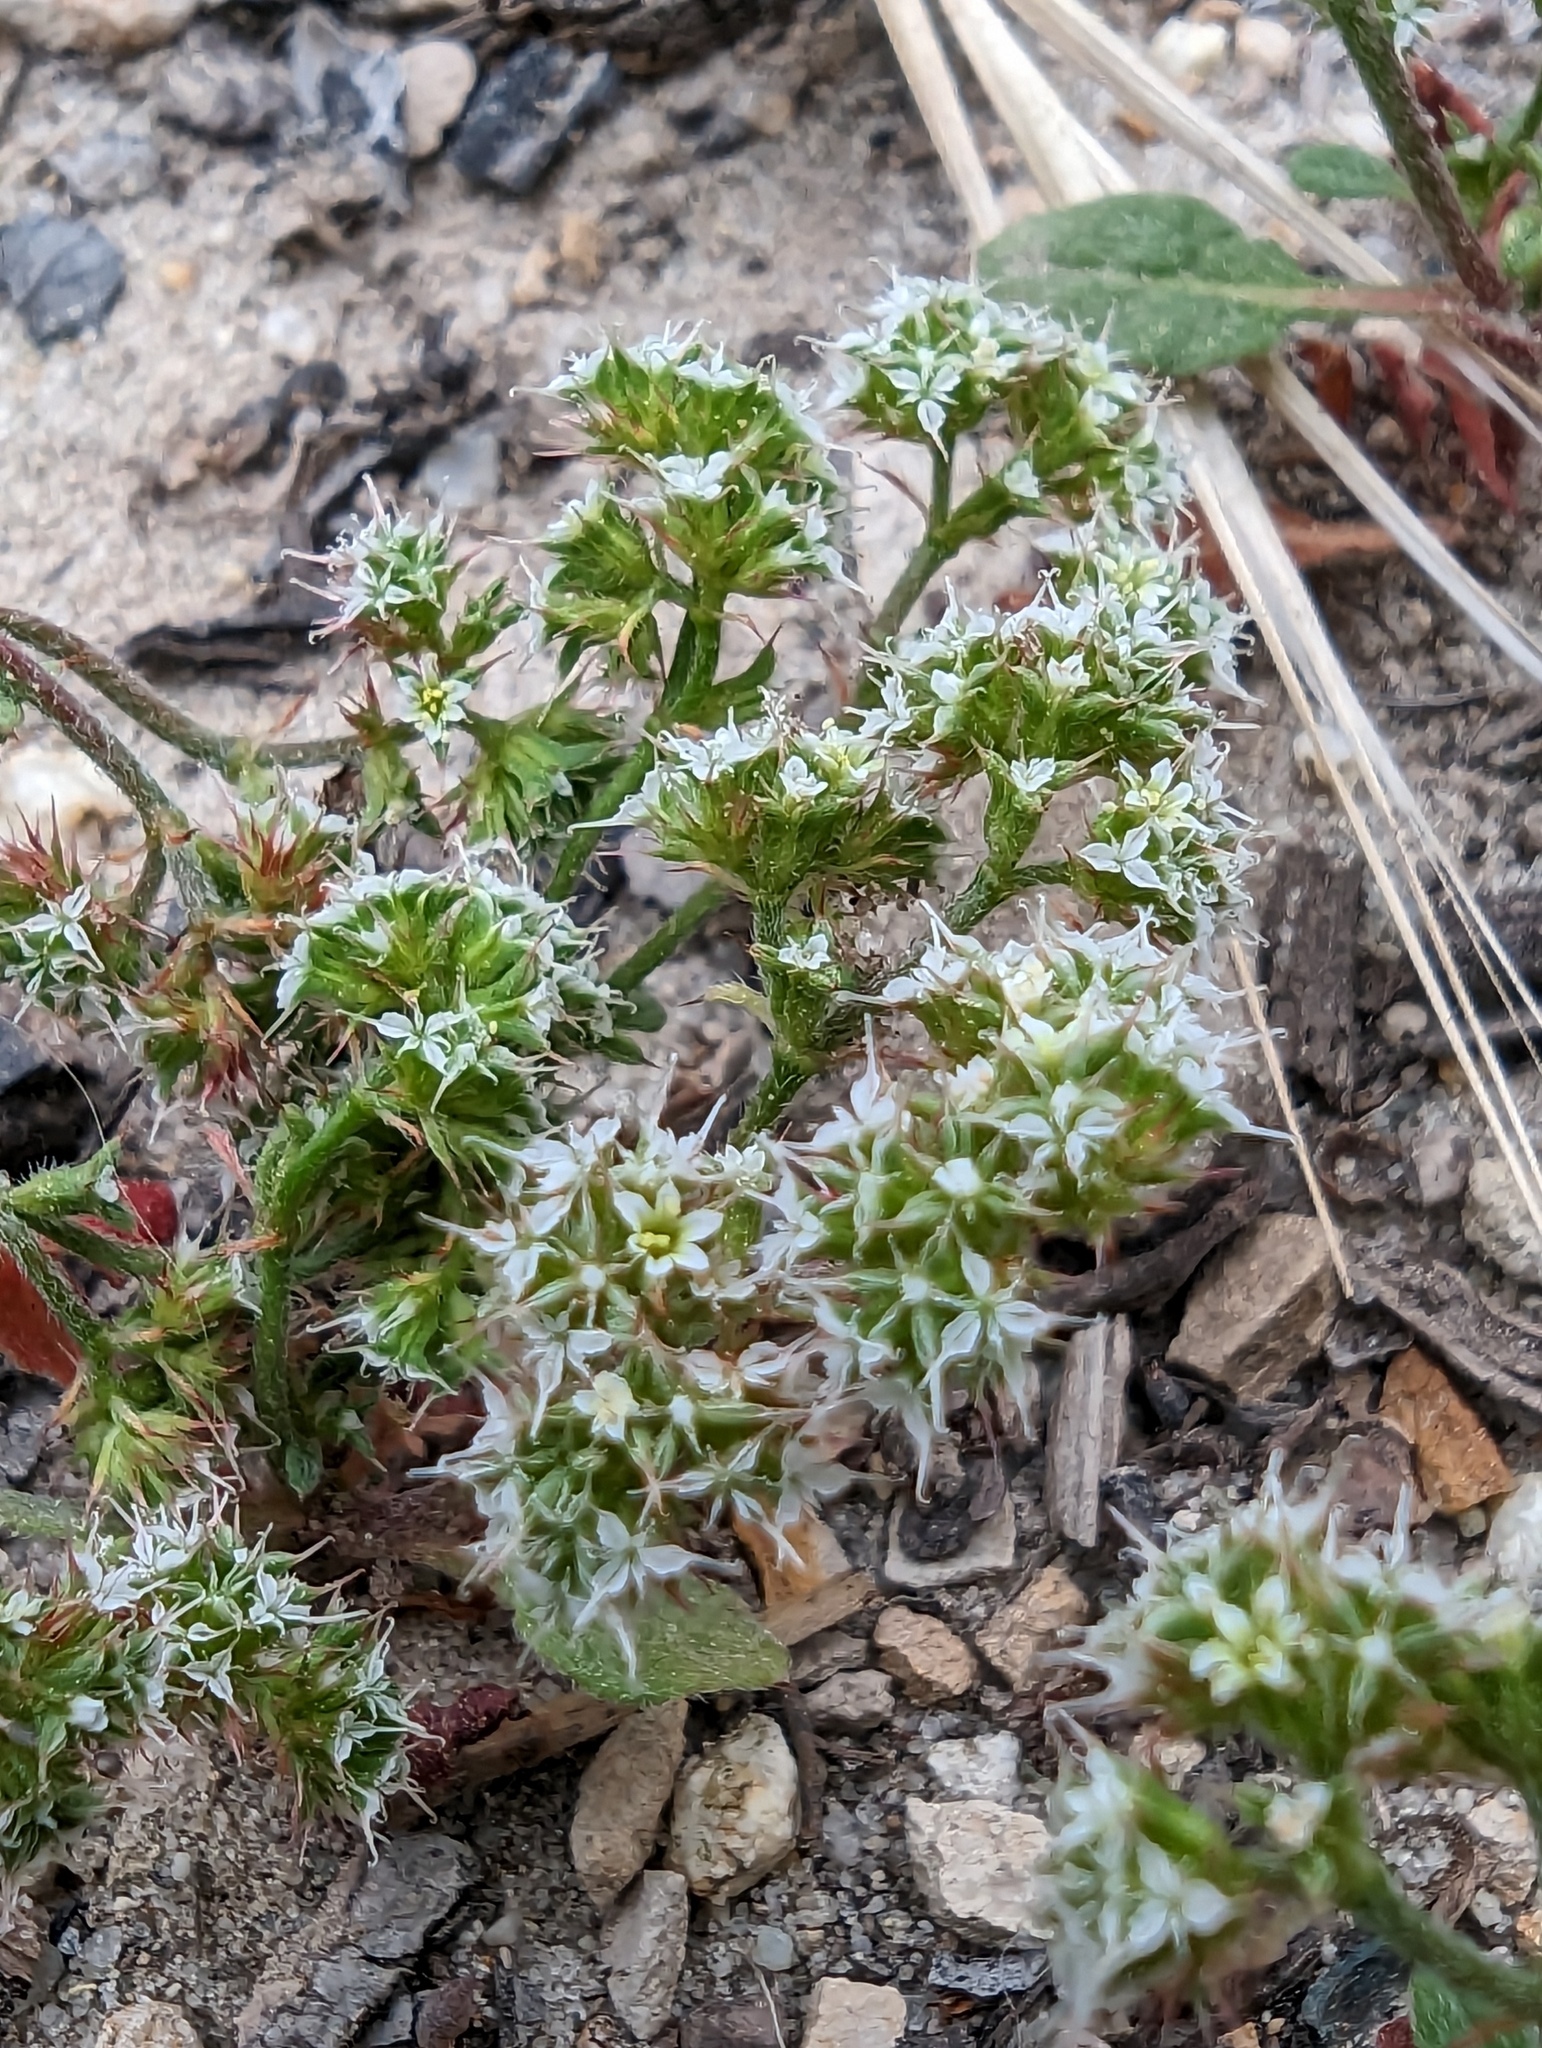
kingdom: Plantae
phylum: Tracheophyta
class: Magnoliopsida
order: Caryophyllales
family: Polygonaceae
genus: Chorizanthe
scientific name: Chorizanthe diffusa
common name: Diffuse spineflower
